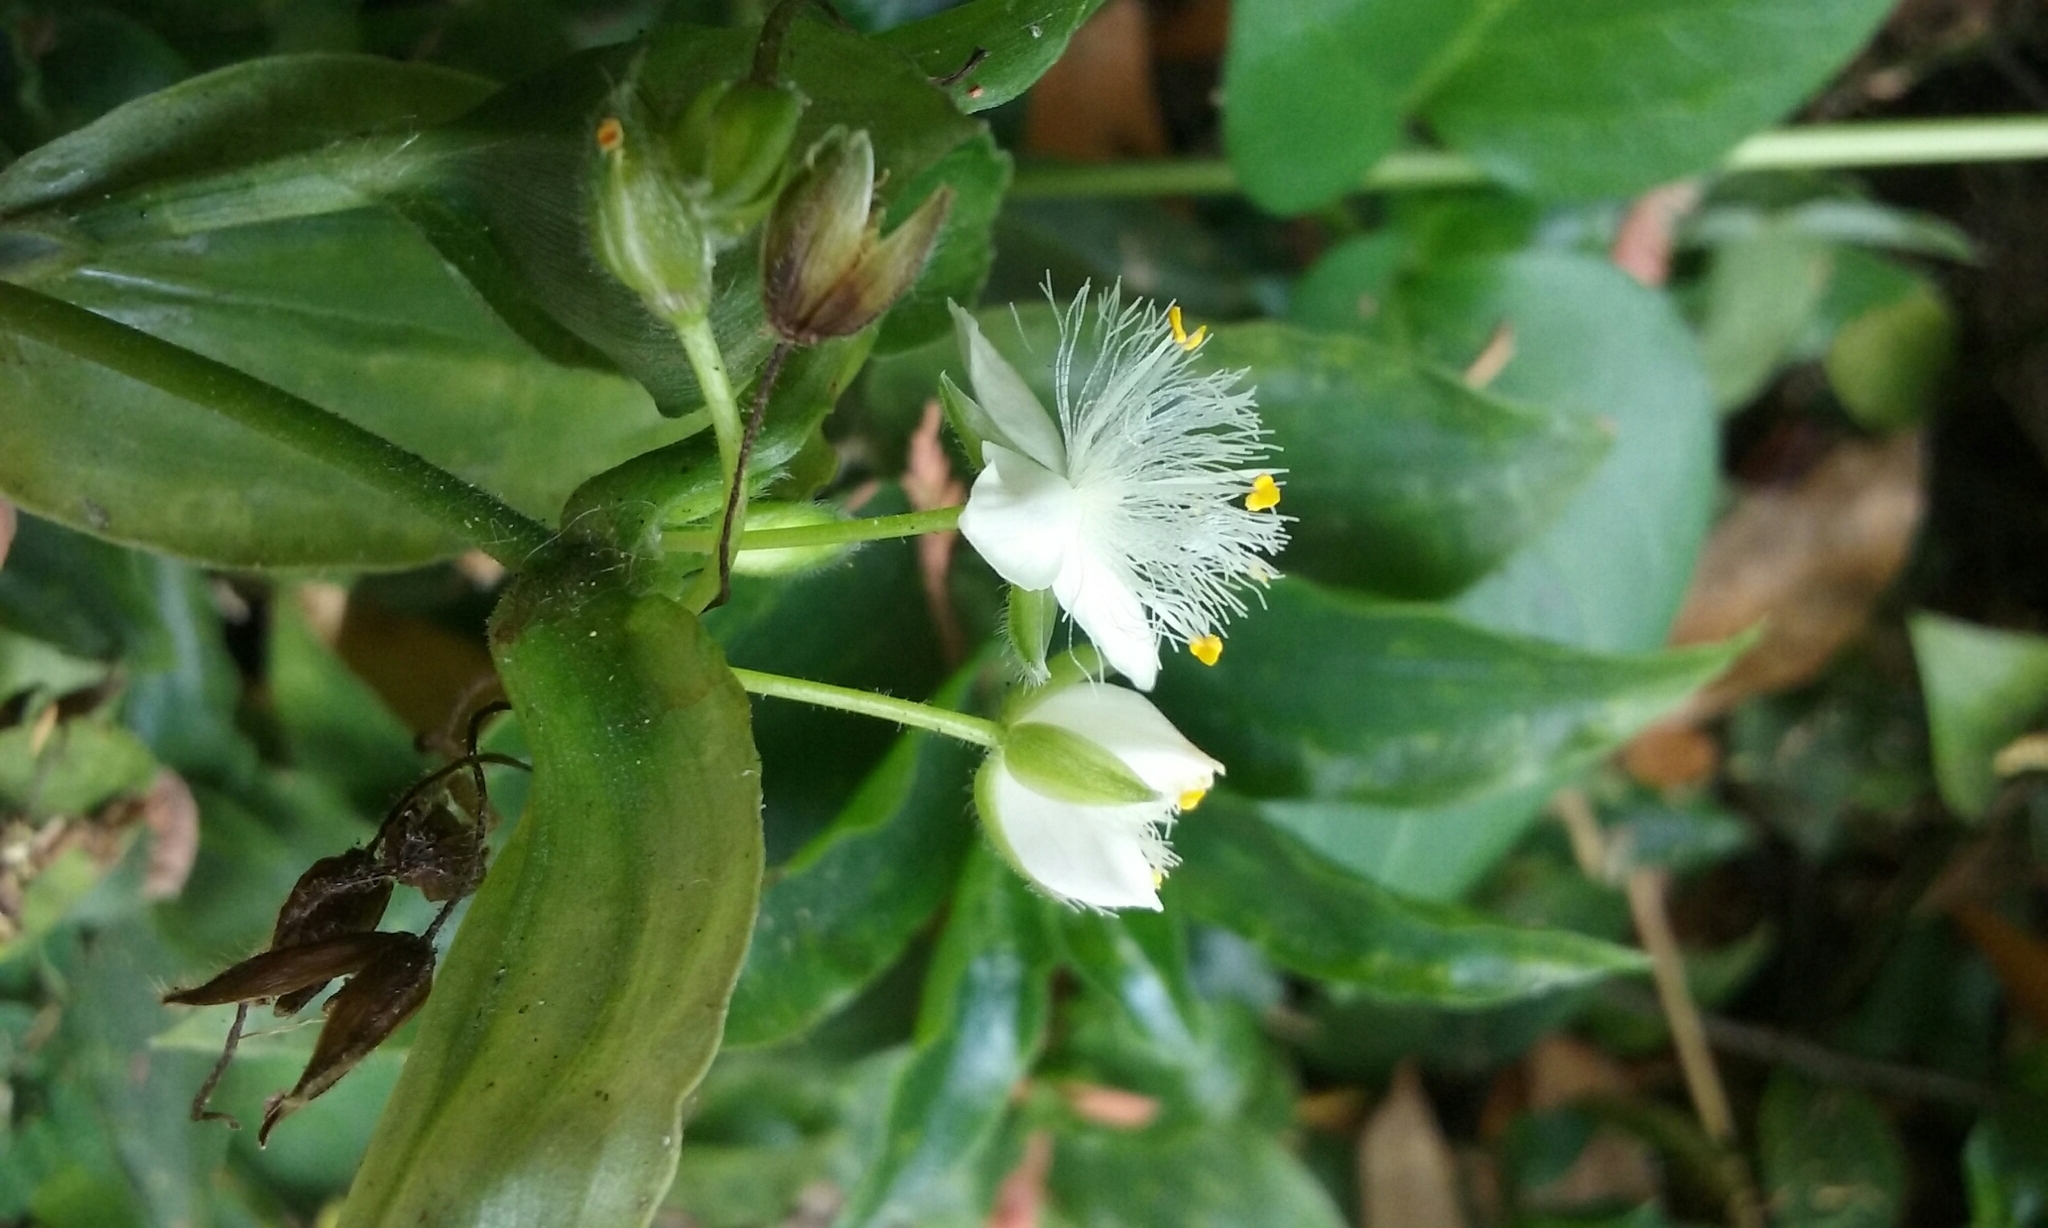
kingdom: Plantae
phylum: Tracheophyta
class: Liliopsida
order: Commelinales
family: Commelinaceae
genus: Tradescantia
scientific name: Tradescantia fluminensis
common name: Wandering-jew
